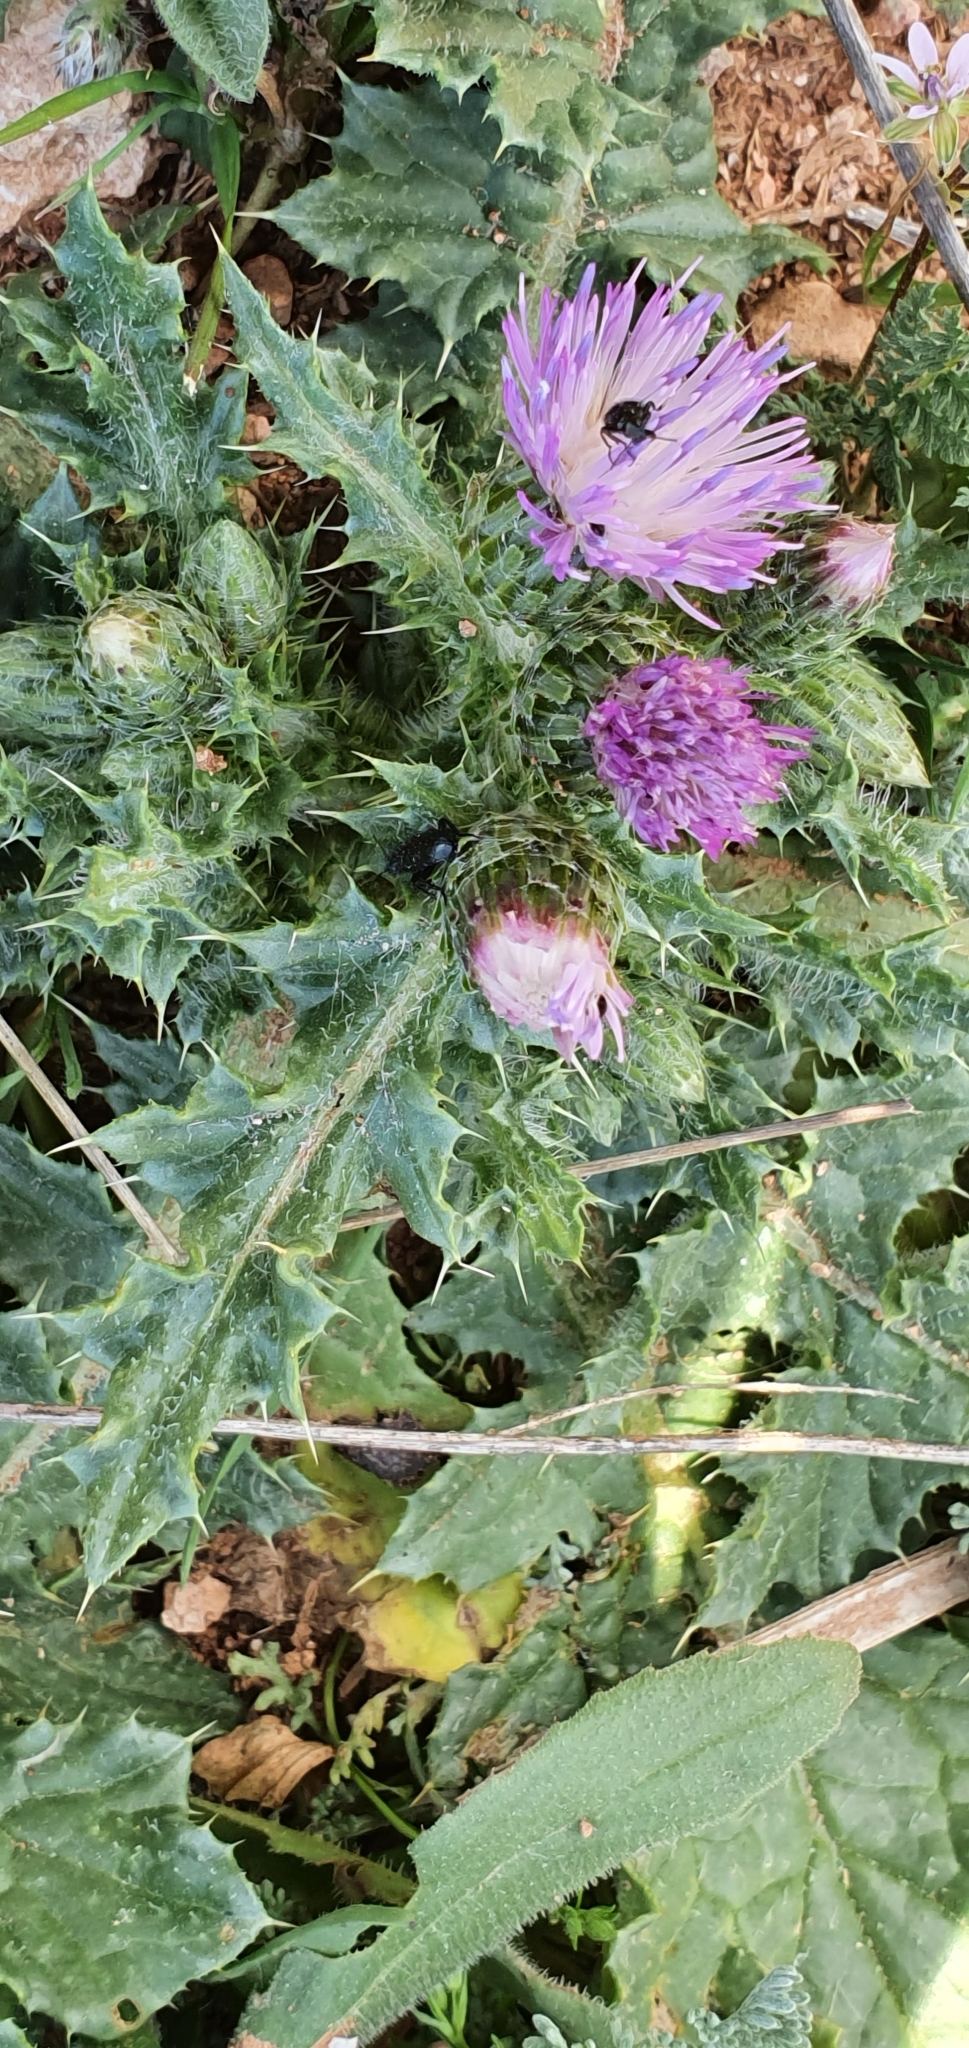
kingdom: Plantae
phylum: Tracheophyta
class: Magnoliopsida
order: Asterales
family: Asteraceae
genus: Carduus
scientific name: Carduus spachianus
